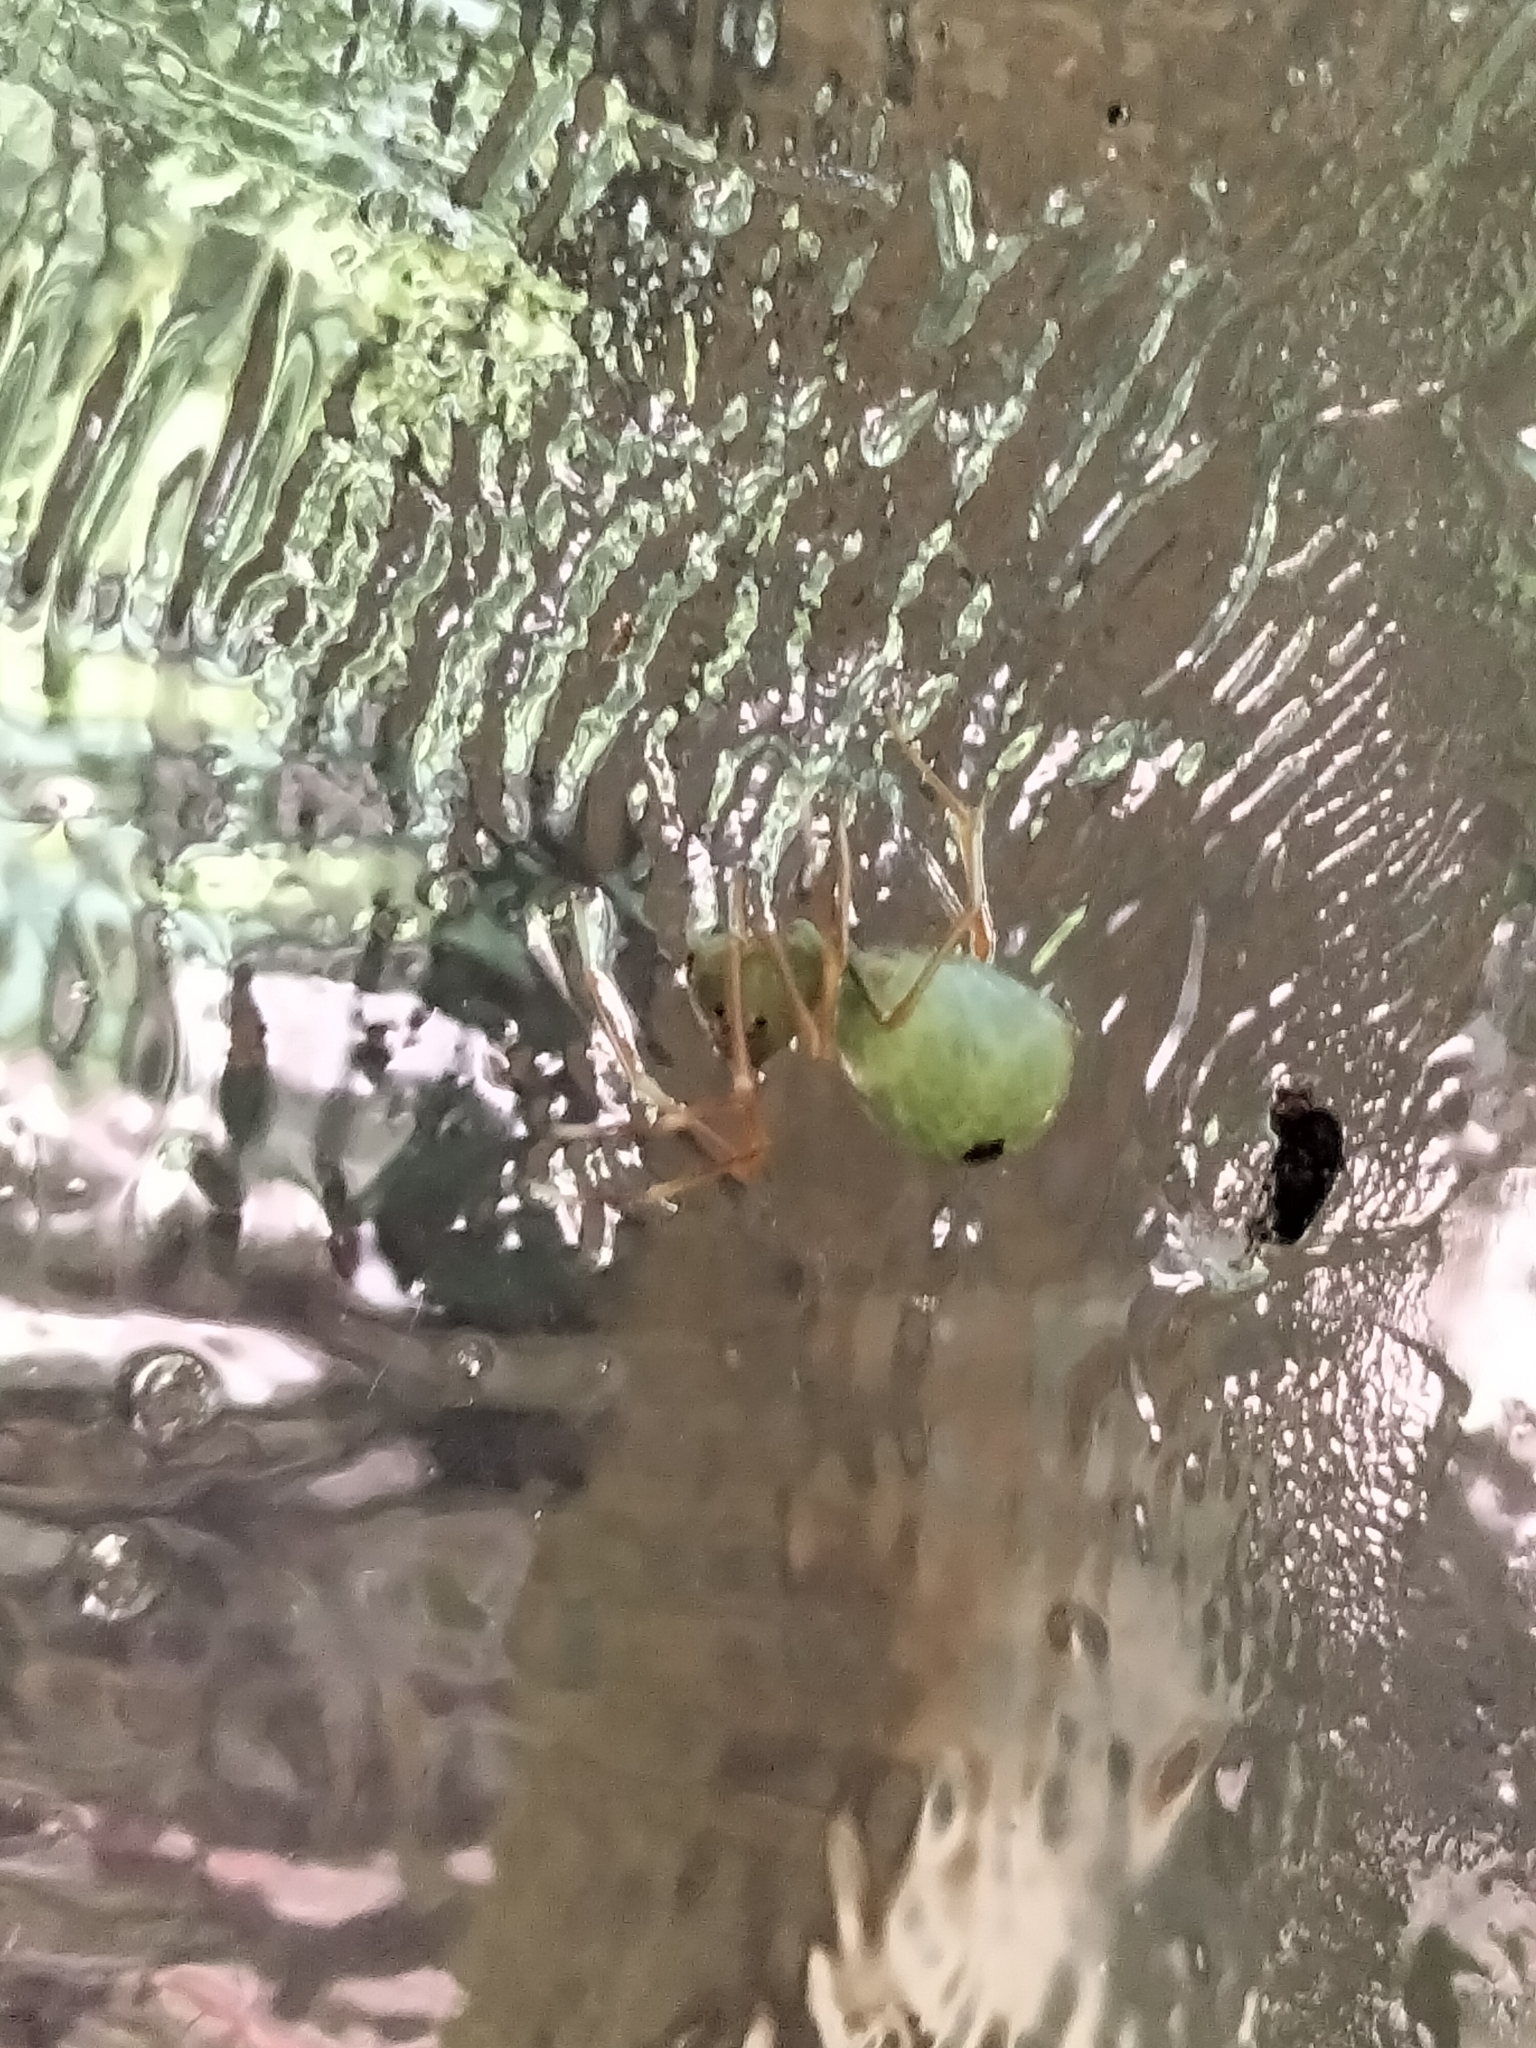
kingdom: Animalia
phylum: Arthropoda
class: Arachnida
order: Araneae
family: Thomisidae
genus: Amyciaea
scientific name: Amyciaea albomaculata
